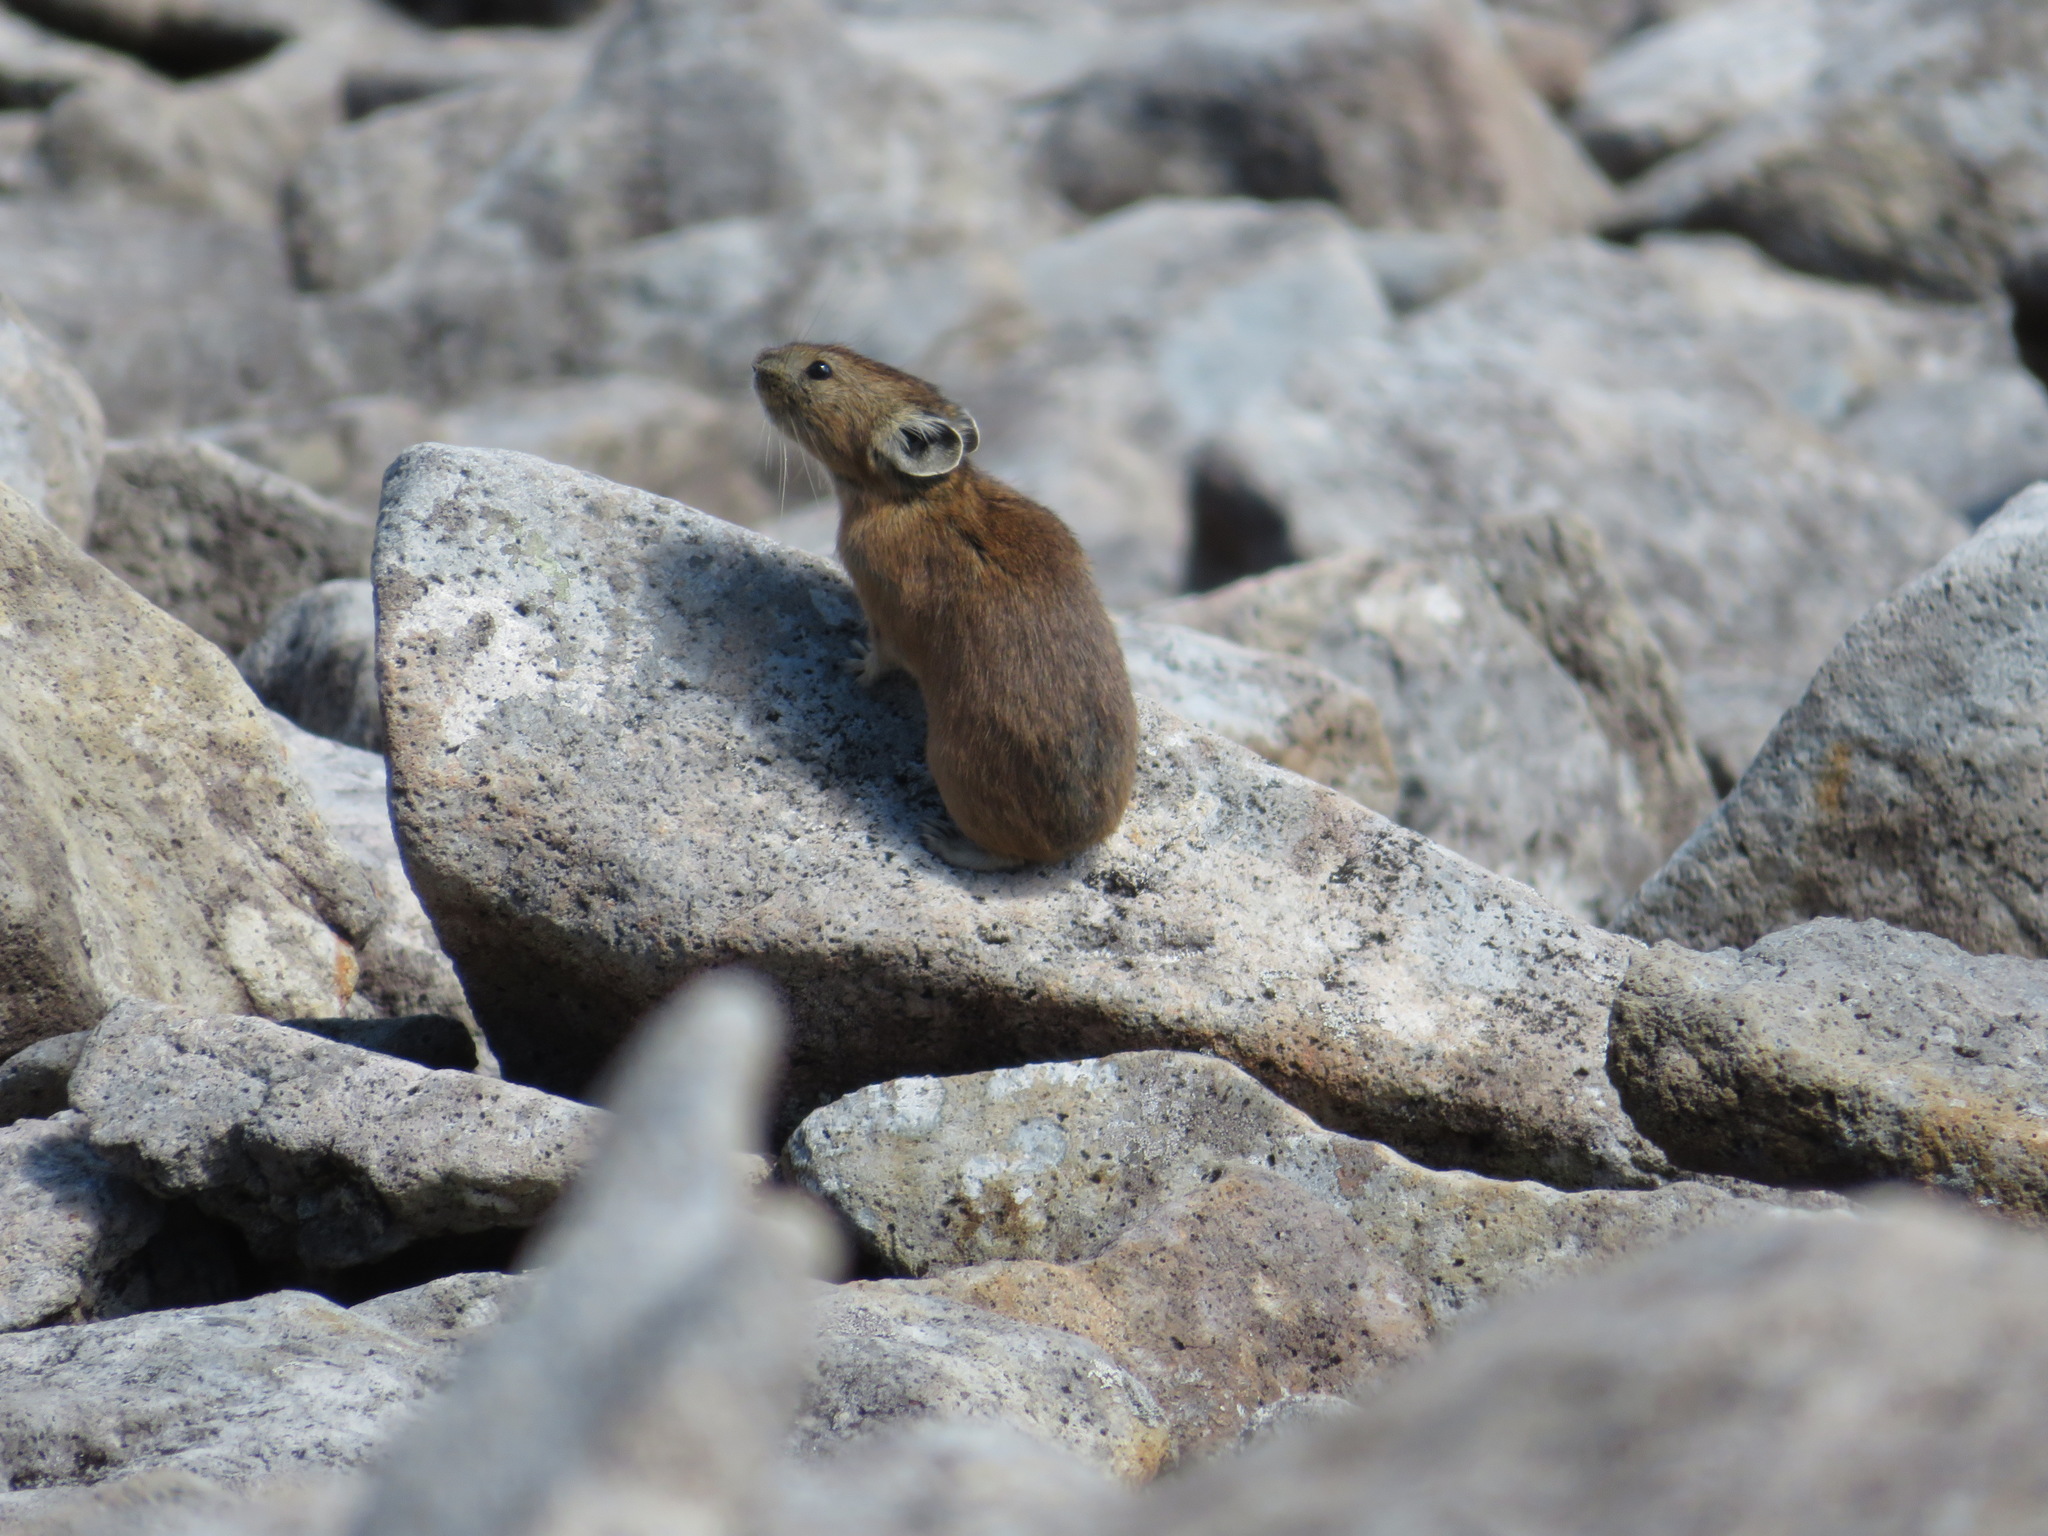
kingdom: Animalia
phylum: Chordata
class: Mammalia
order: Lagomorpha
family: Ochotonidae
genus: Ochotona
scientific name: Ochotona hyperborea
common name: Northern pika
